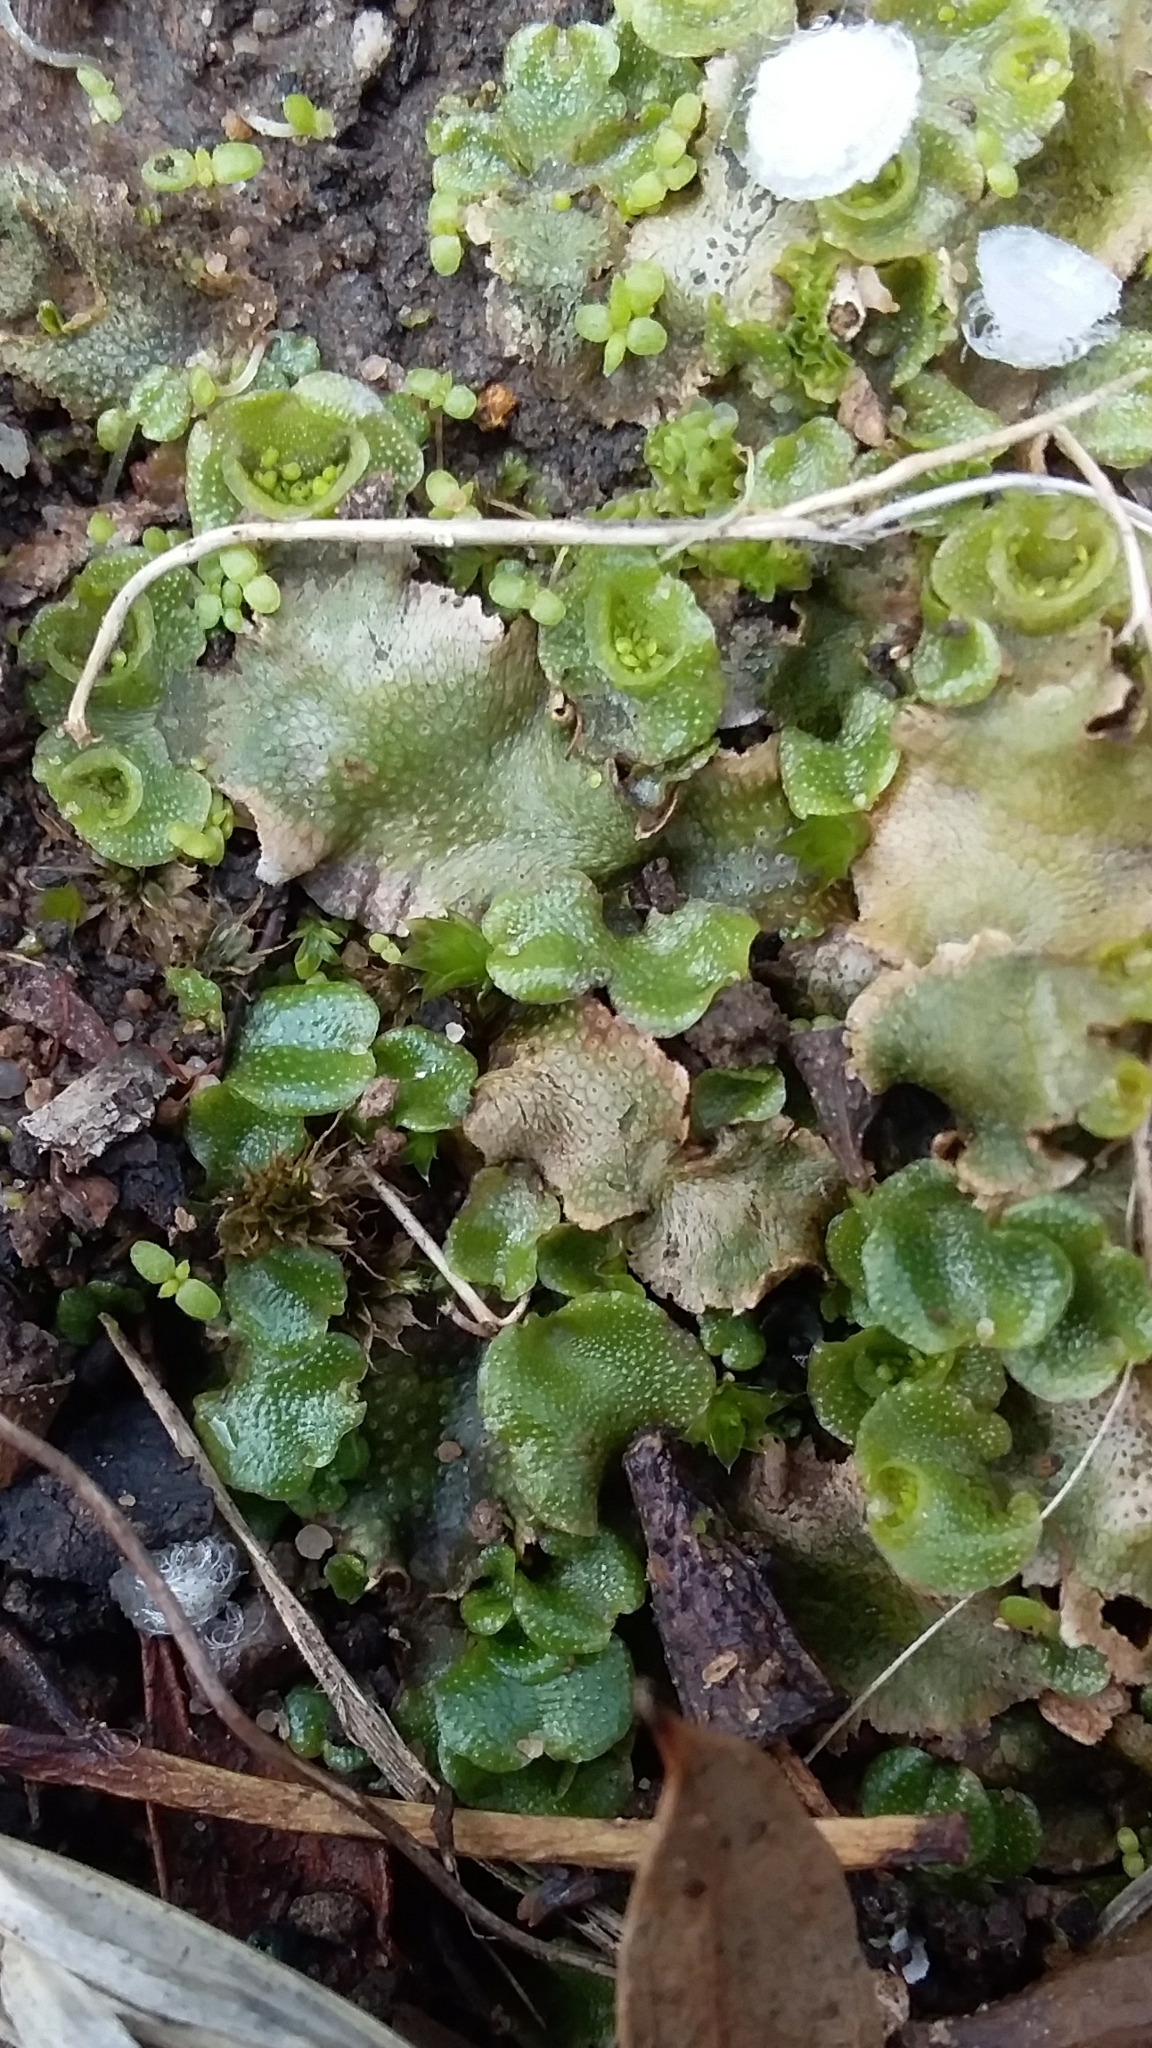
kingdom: Plantae
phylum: Marchantiophyta
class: Marchantiopsida
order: Lunulariales
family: Lunulariaceae
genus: Lunularia
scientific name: Lunularia cruciata
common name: Crescent-cup liverwort
